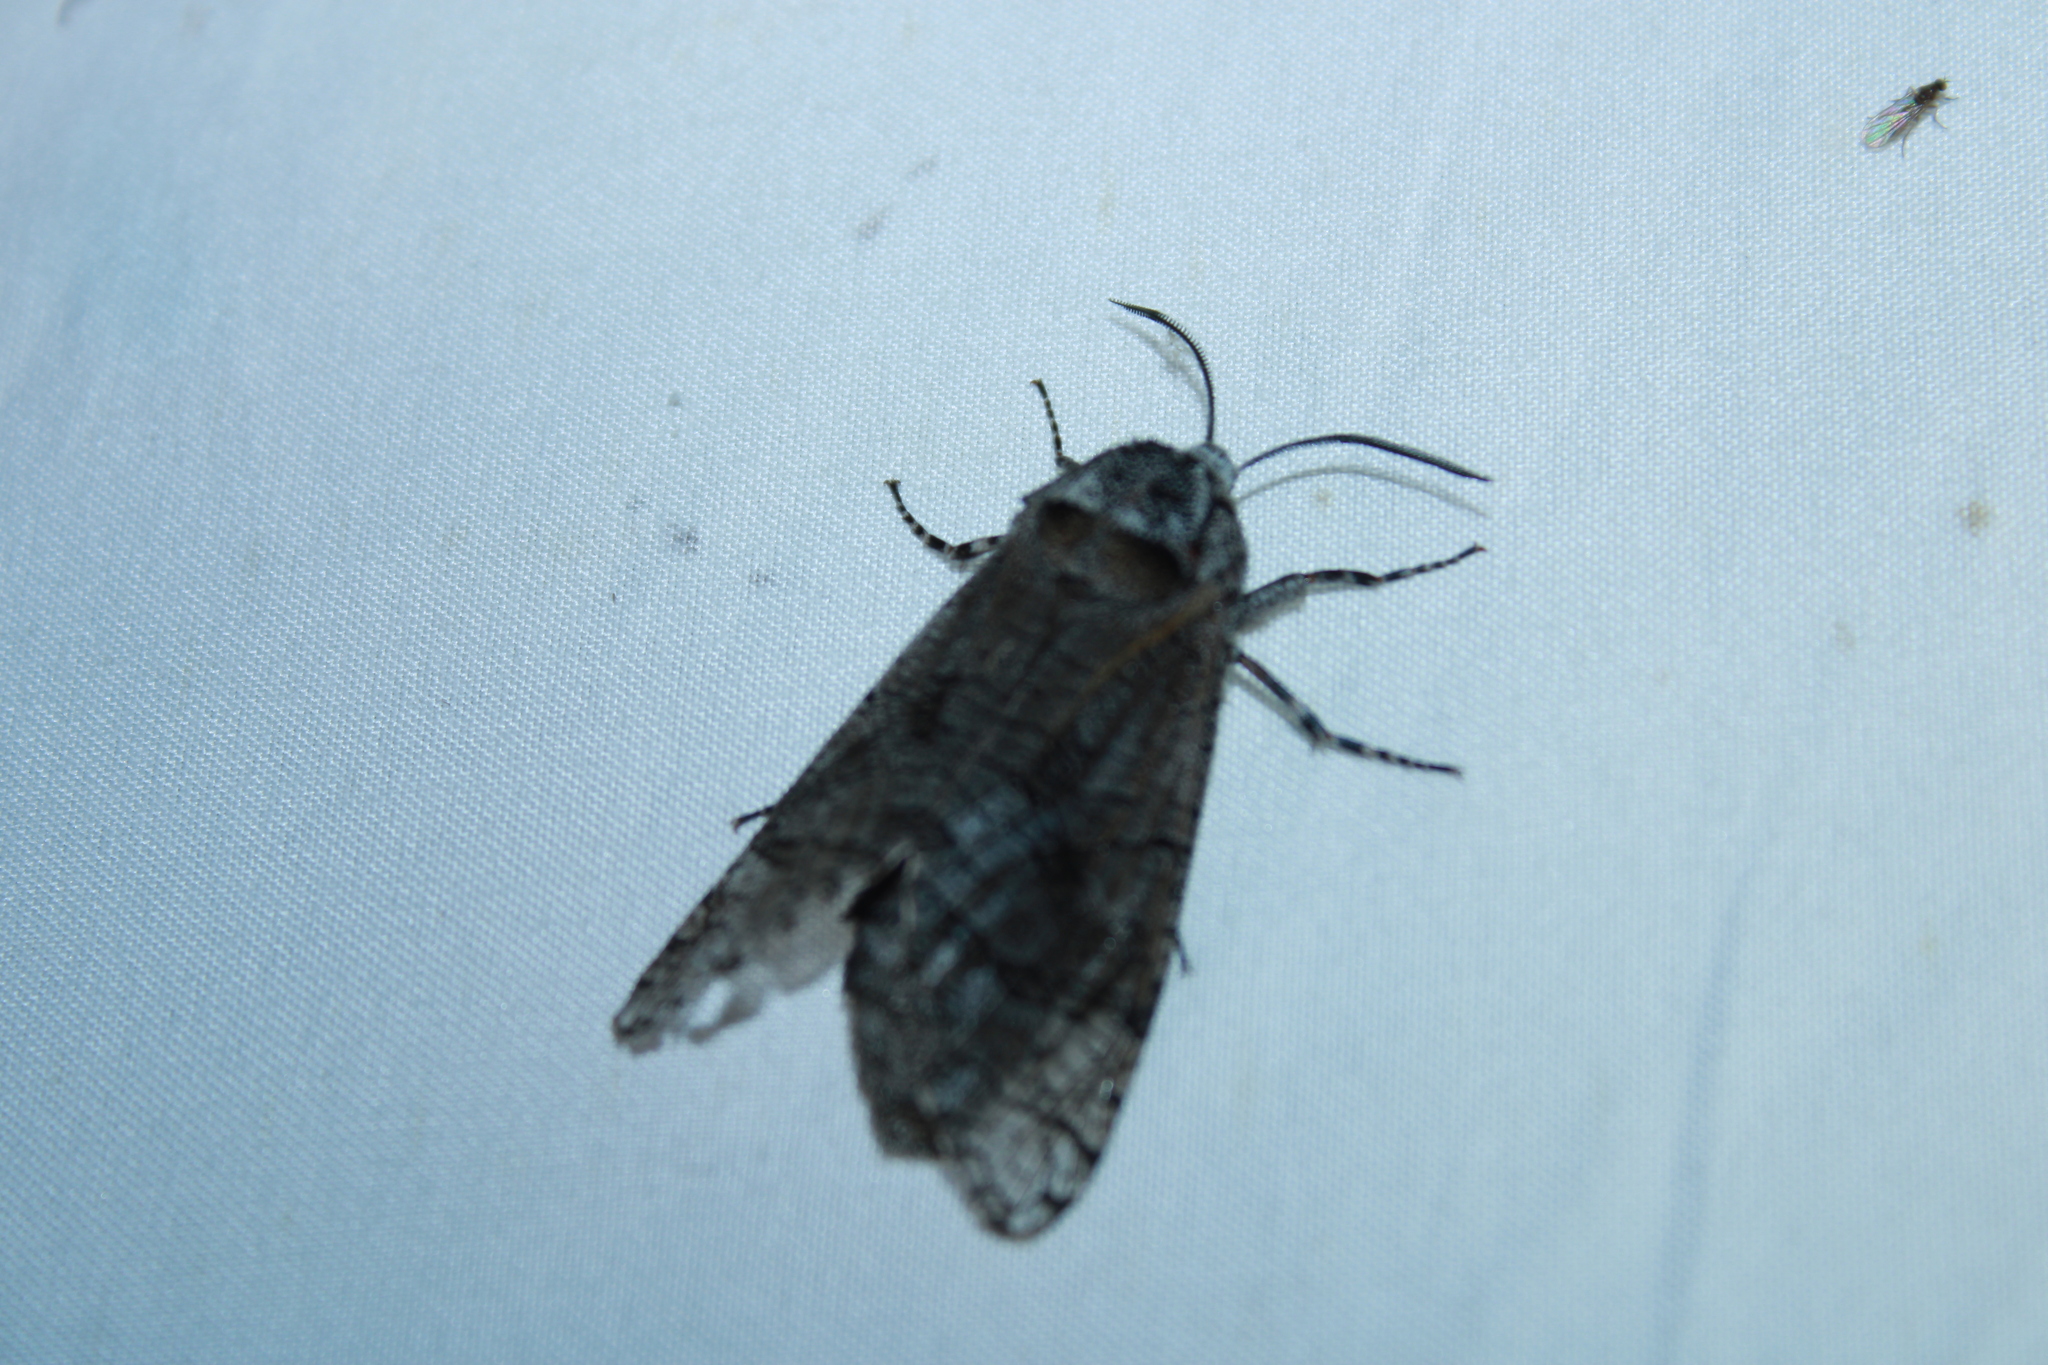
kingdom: Animalia
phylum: Arthropoda
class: Insecta
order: Lepidoptera
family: Cossidae
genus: Prionoxystus
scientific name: Prionoxystus macmurtrei
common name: Little carpenterworm
